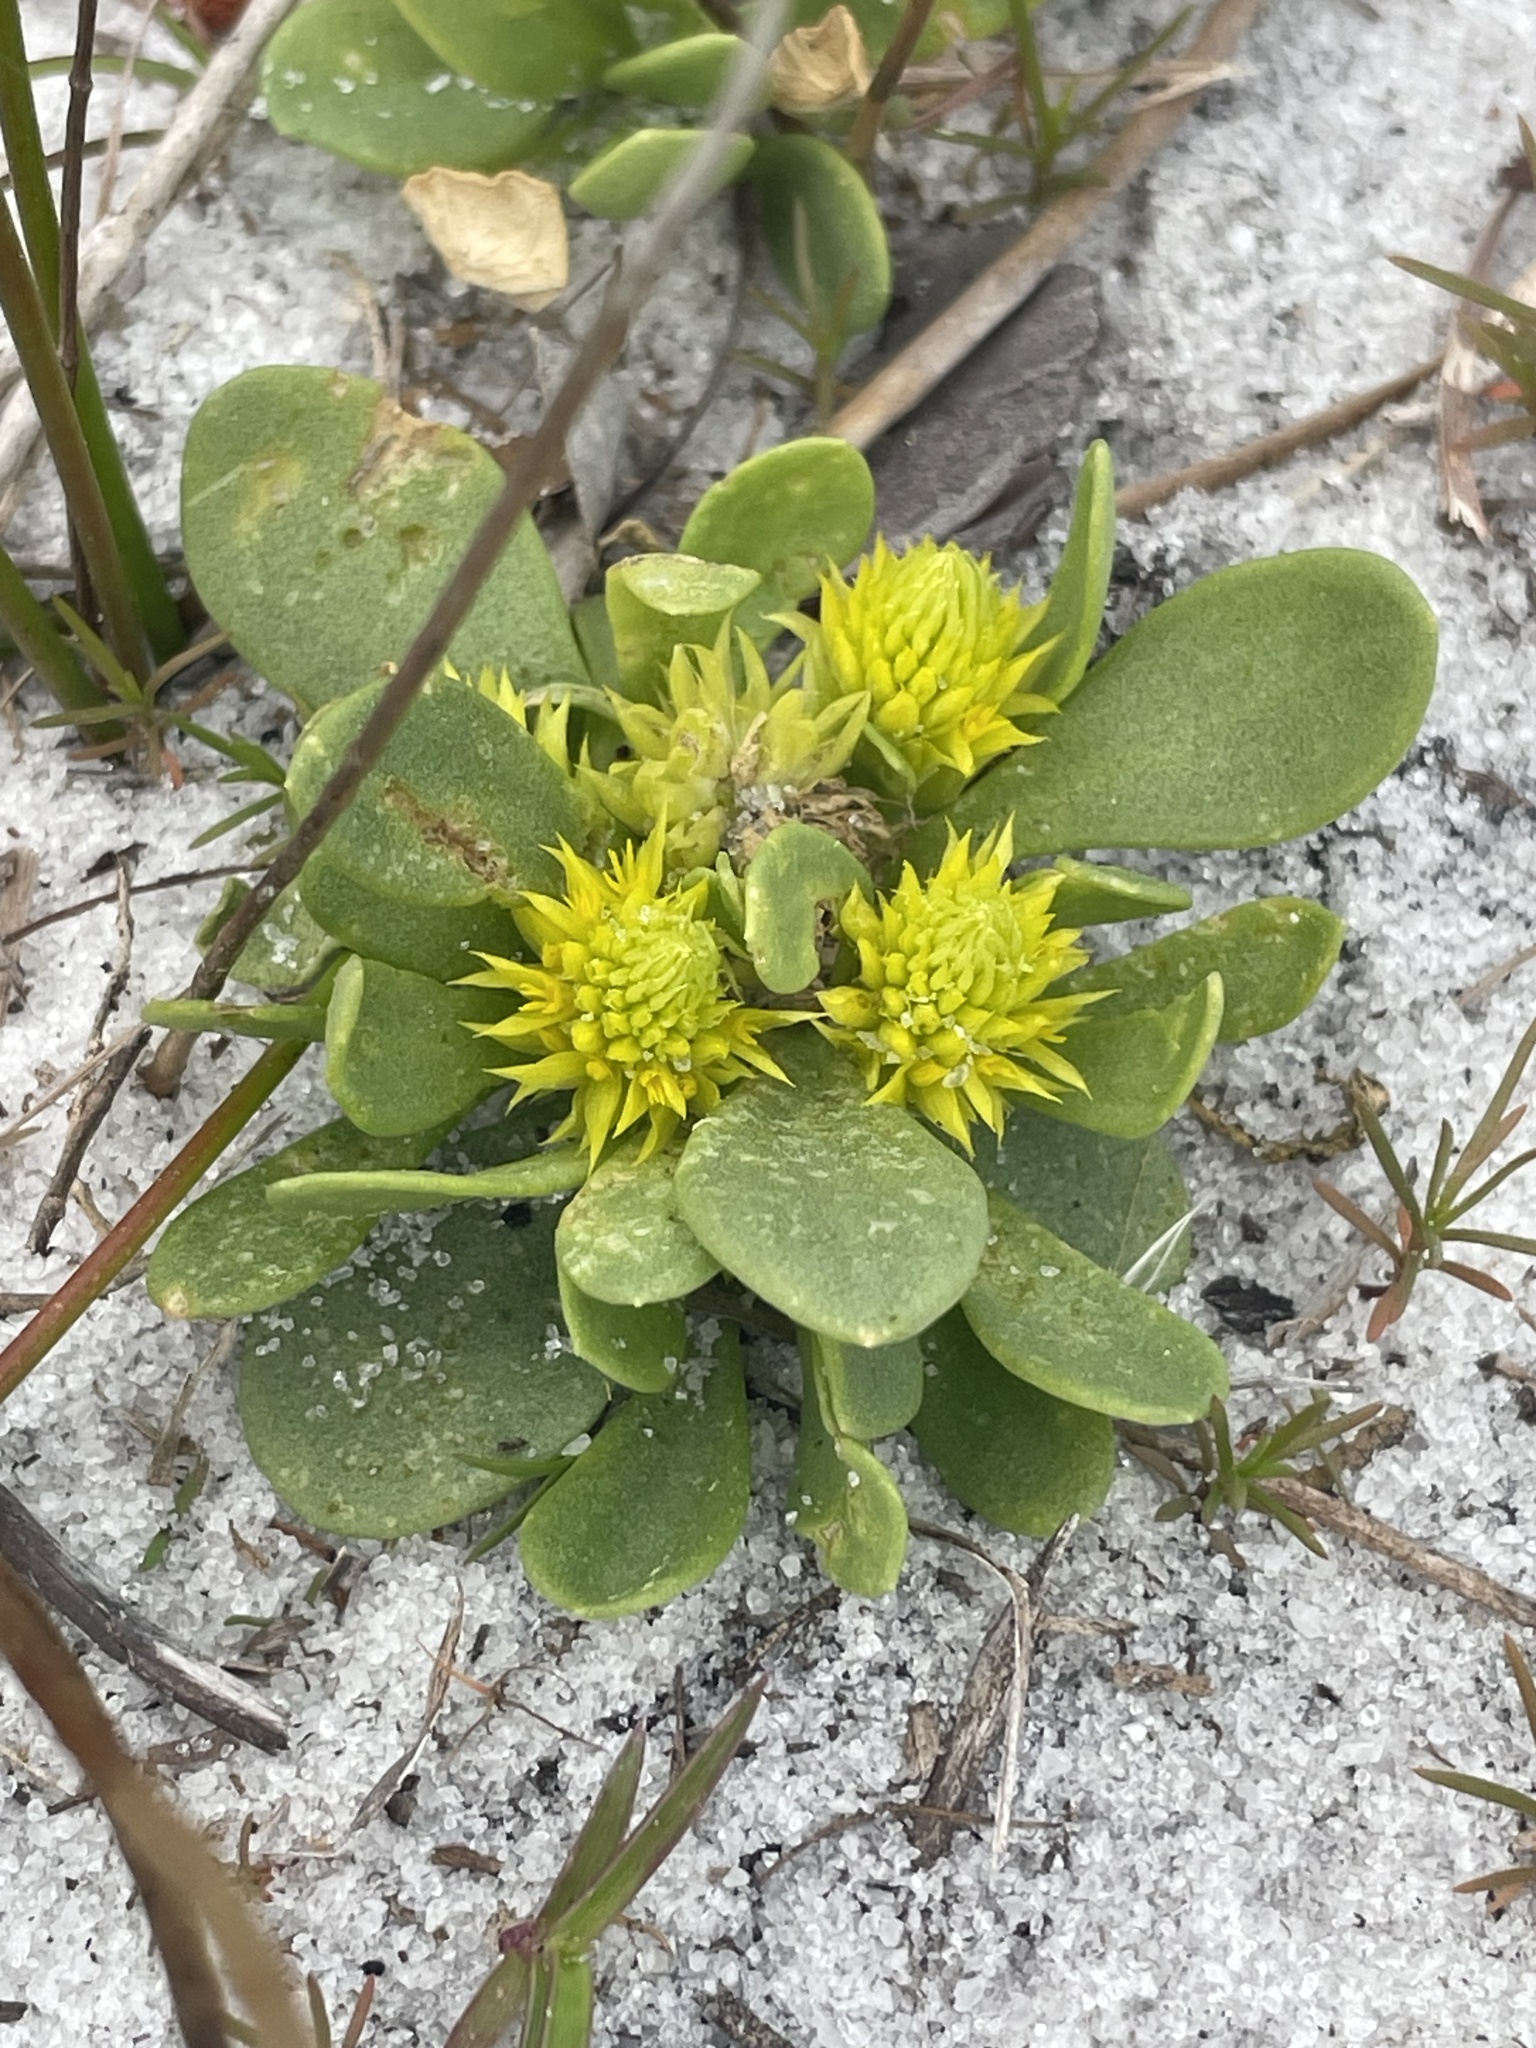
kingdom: Plantae
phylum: Tracheophyta
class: Magnoliopsida
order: Fabales
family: Polygalaceae
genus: Polygala
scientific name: Polygala nana
